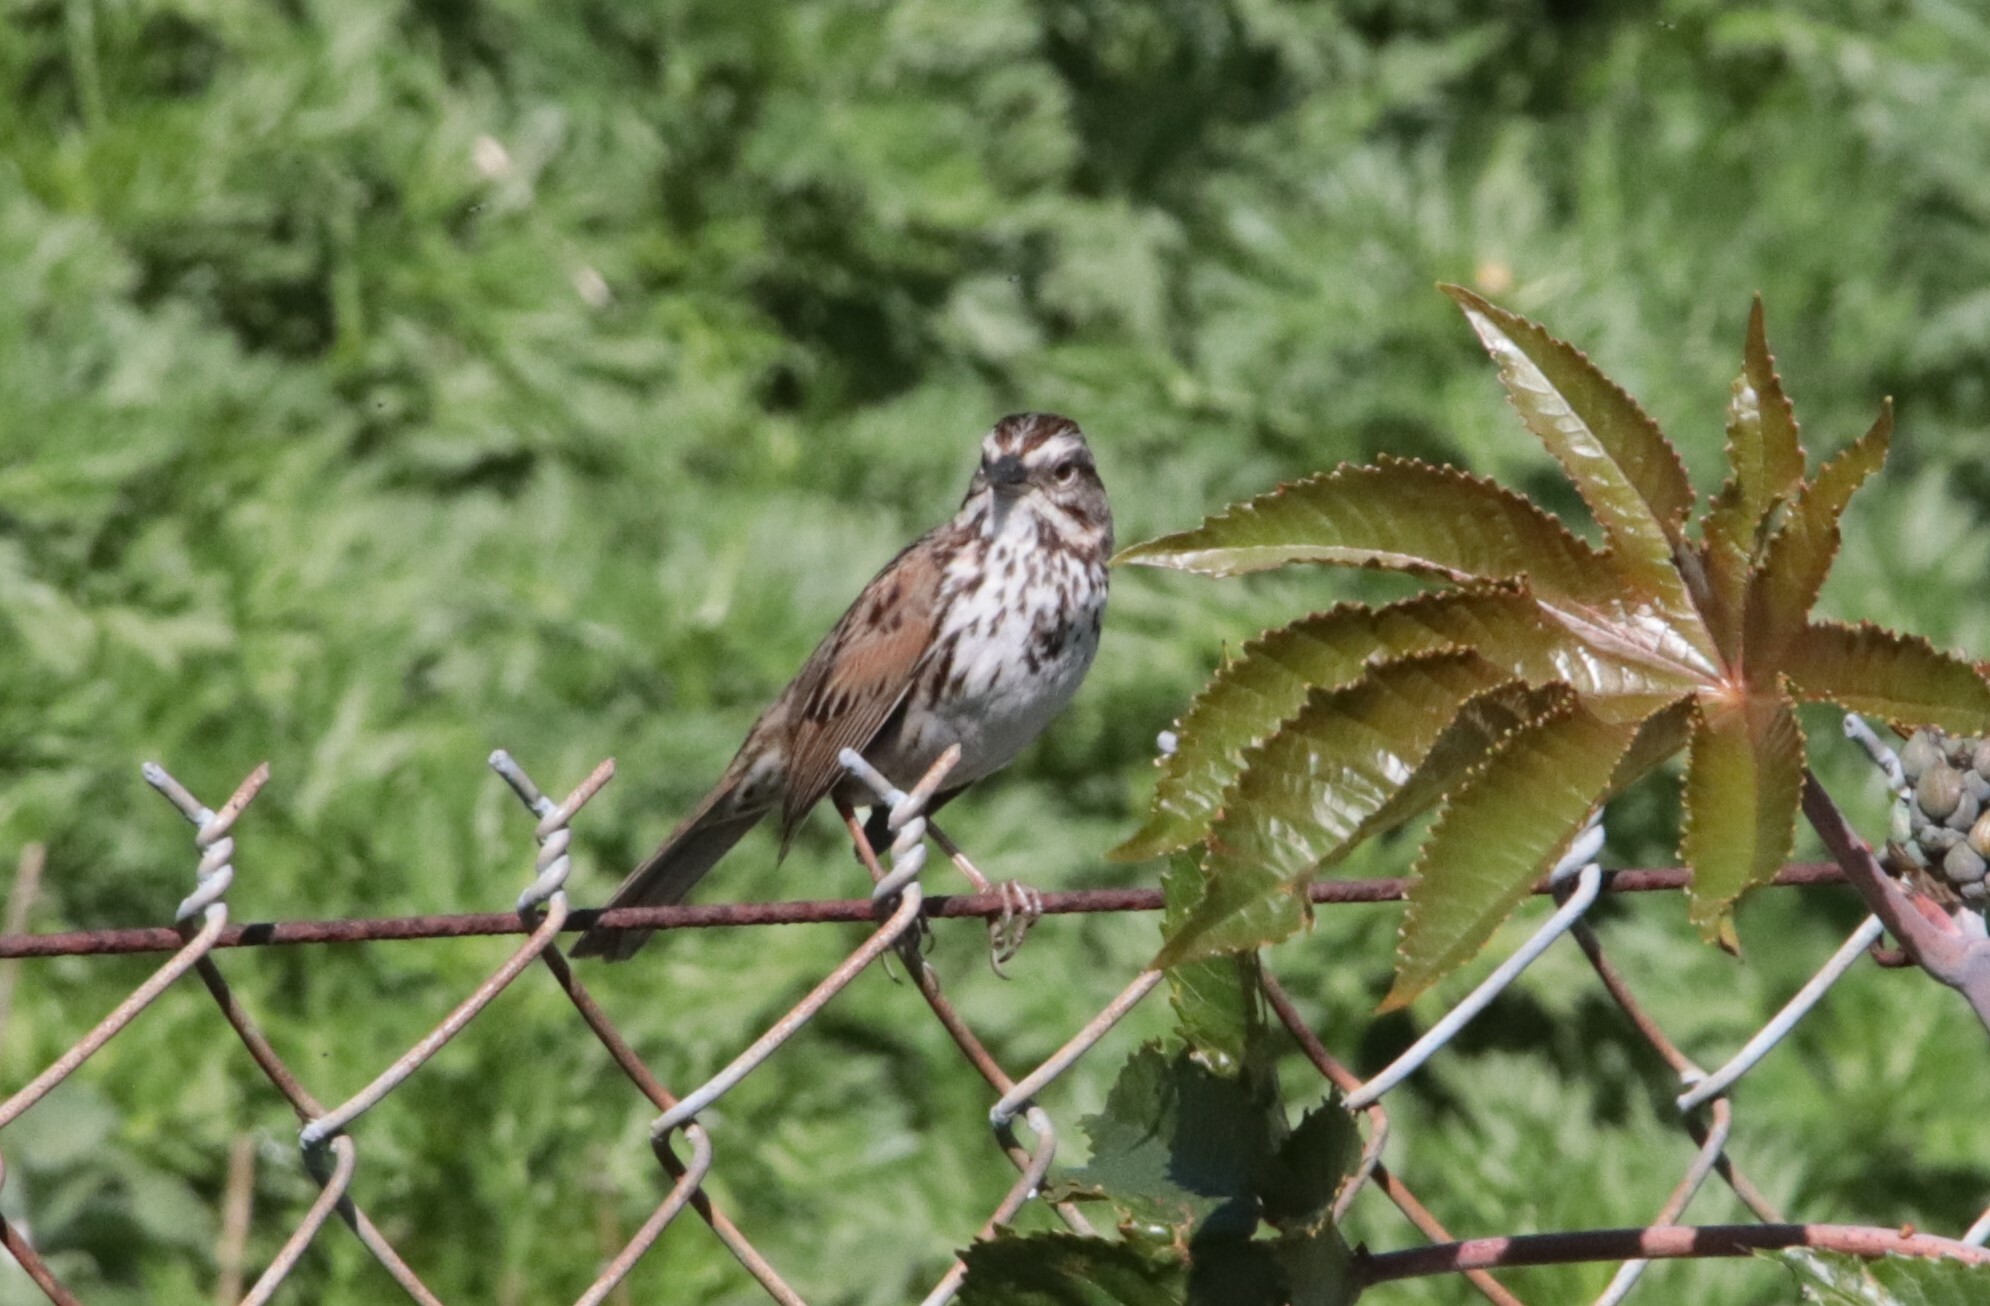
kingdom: Animalia
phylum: Chordata
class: Aves
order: Passeriformes
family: Passerellidae
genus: Melospiza
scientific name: Melospiza melodia
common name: Song sparrow
